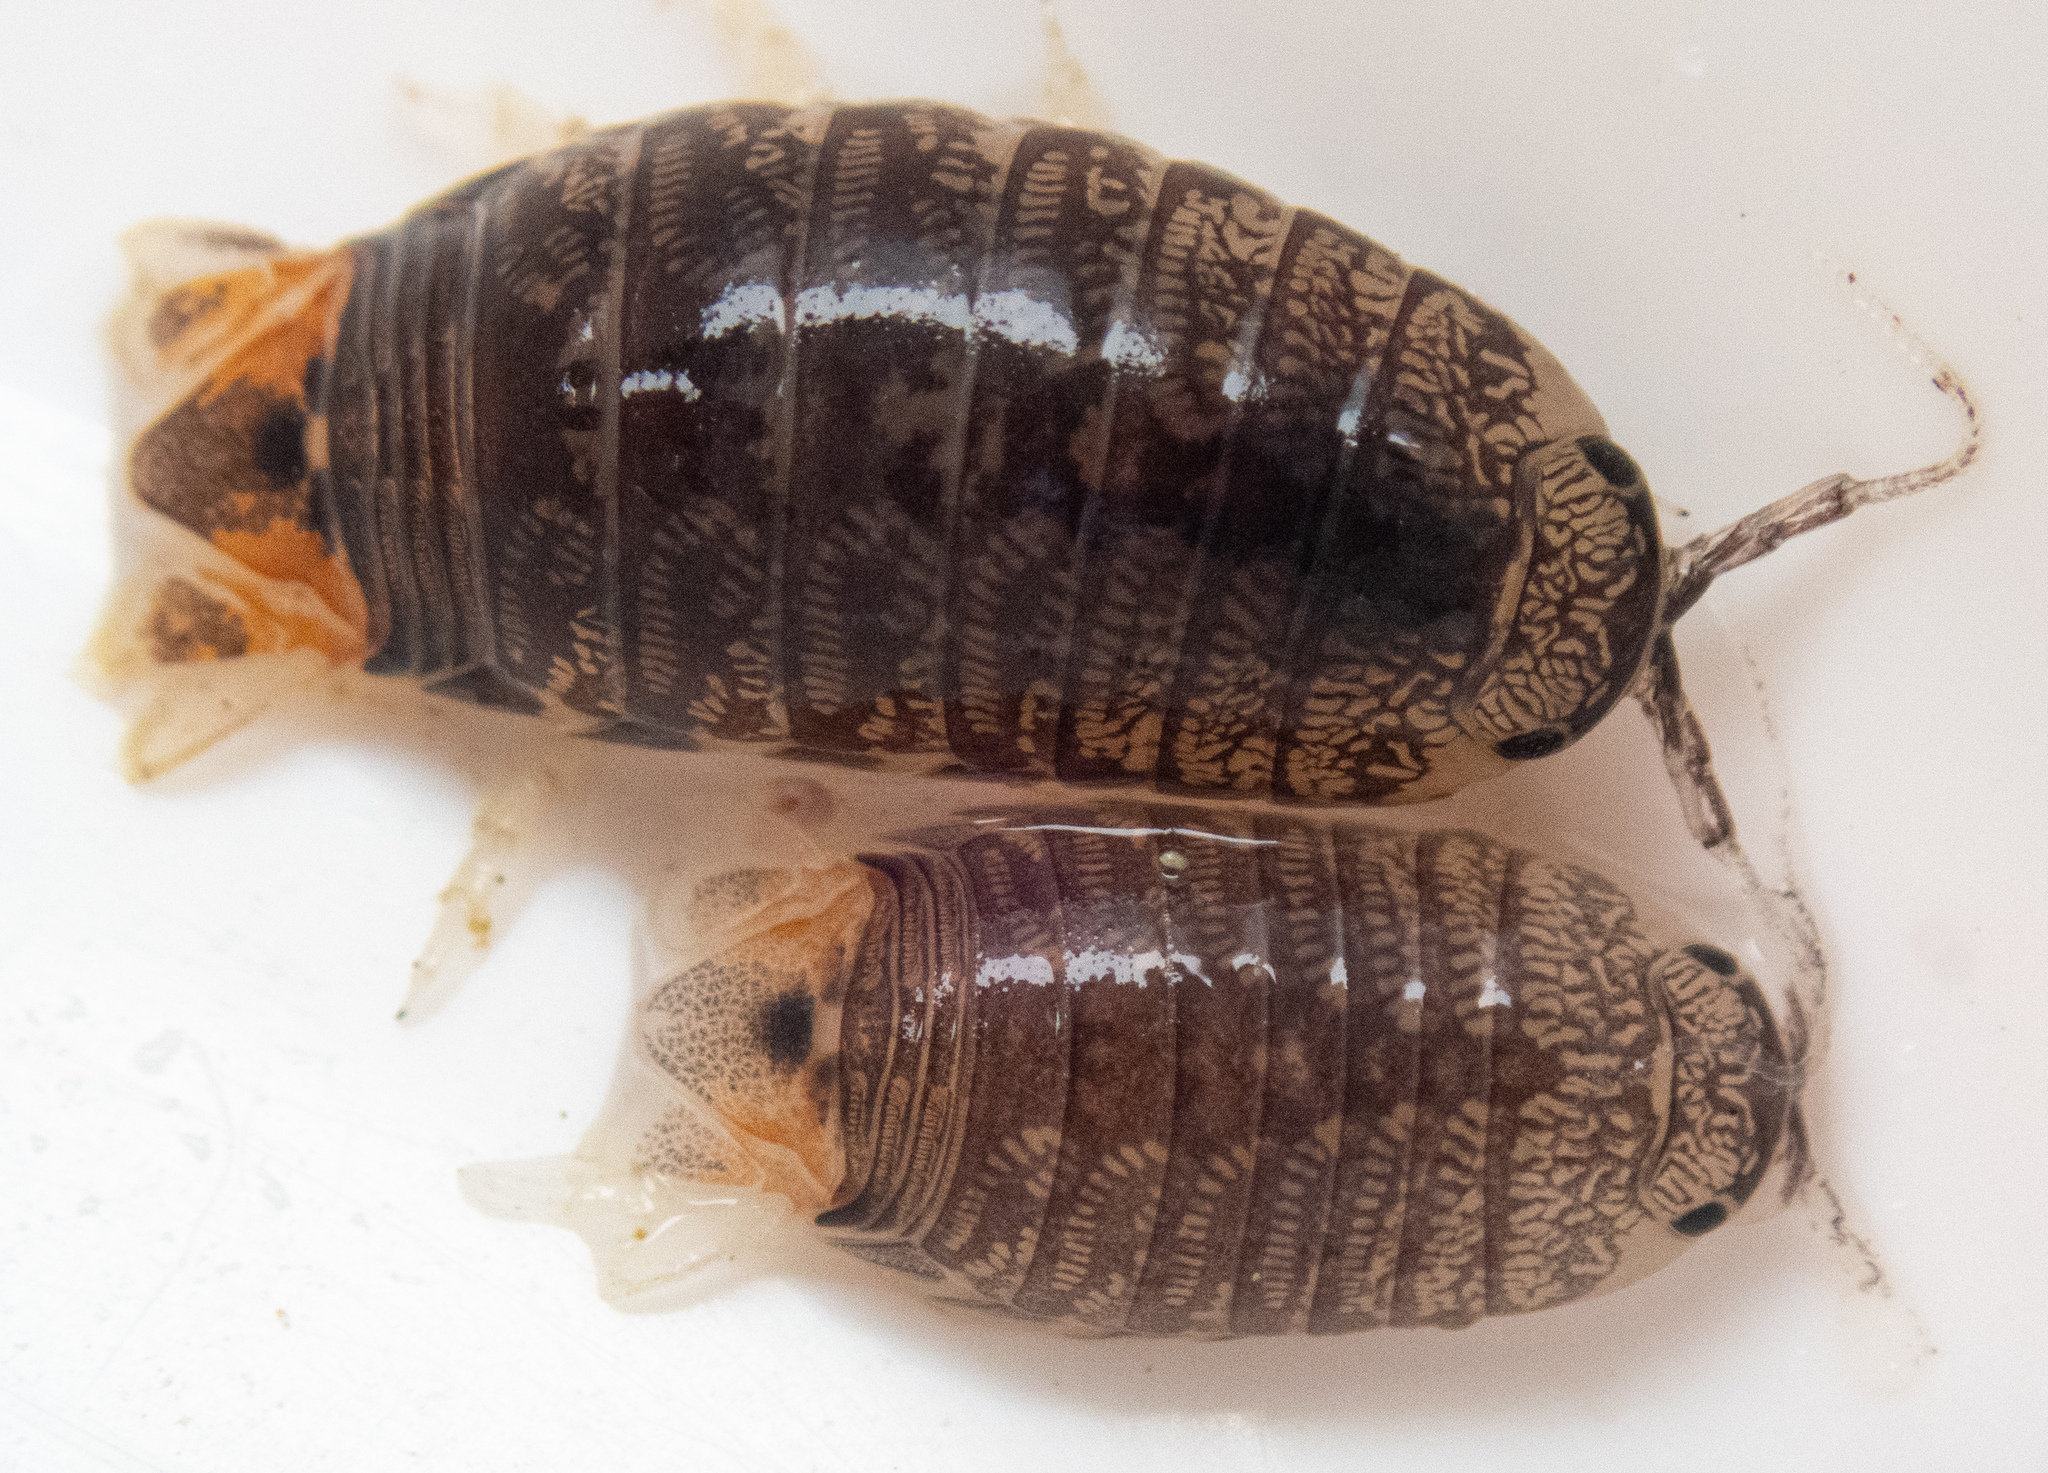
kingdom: Animalia
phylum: Arthropoda
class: Malacostraca
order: Isopoda
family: Cirolanidae
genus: Cirolana
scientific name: Cirolana harfordi
